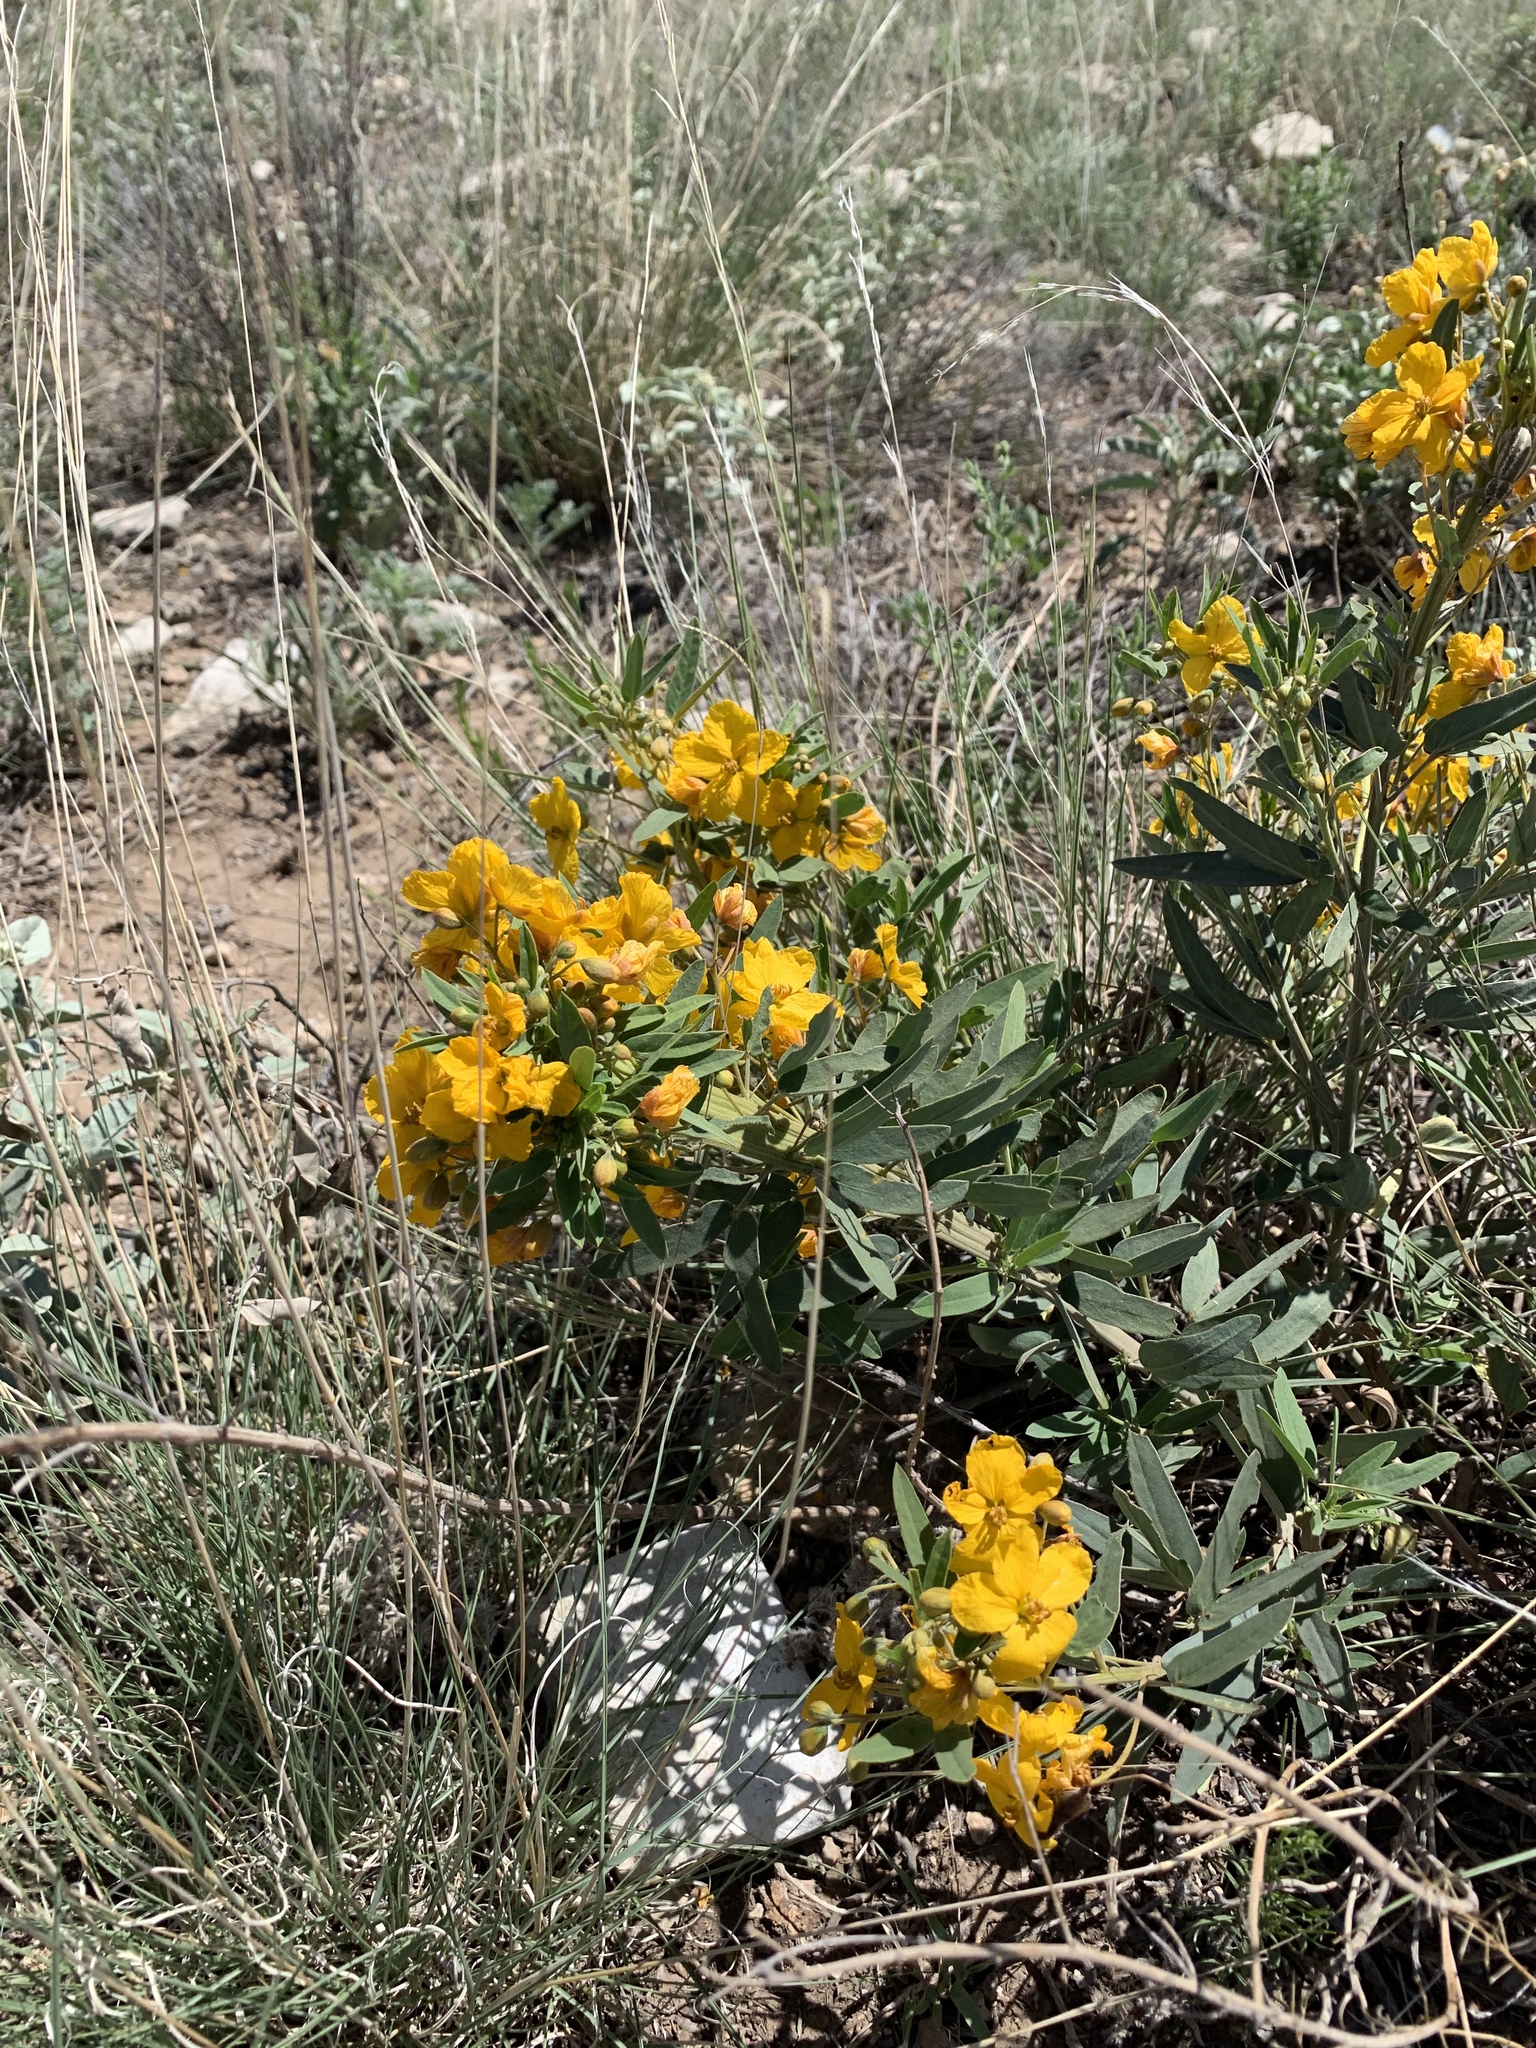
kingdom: Plantae
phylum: Tracheophyta
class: Magnoliopsida
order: Fabales
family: Fabaceae
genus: Senna
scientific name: Senna roemeriana
